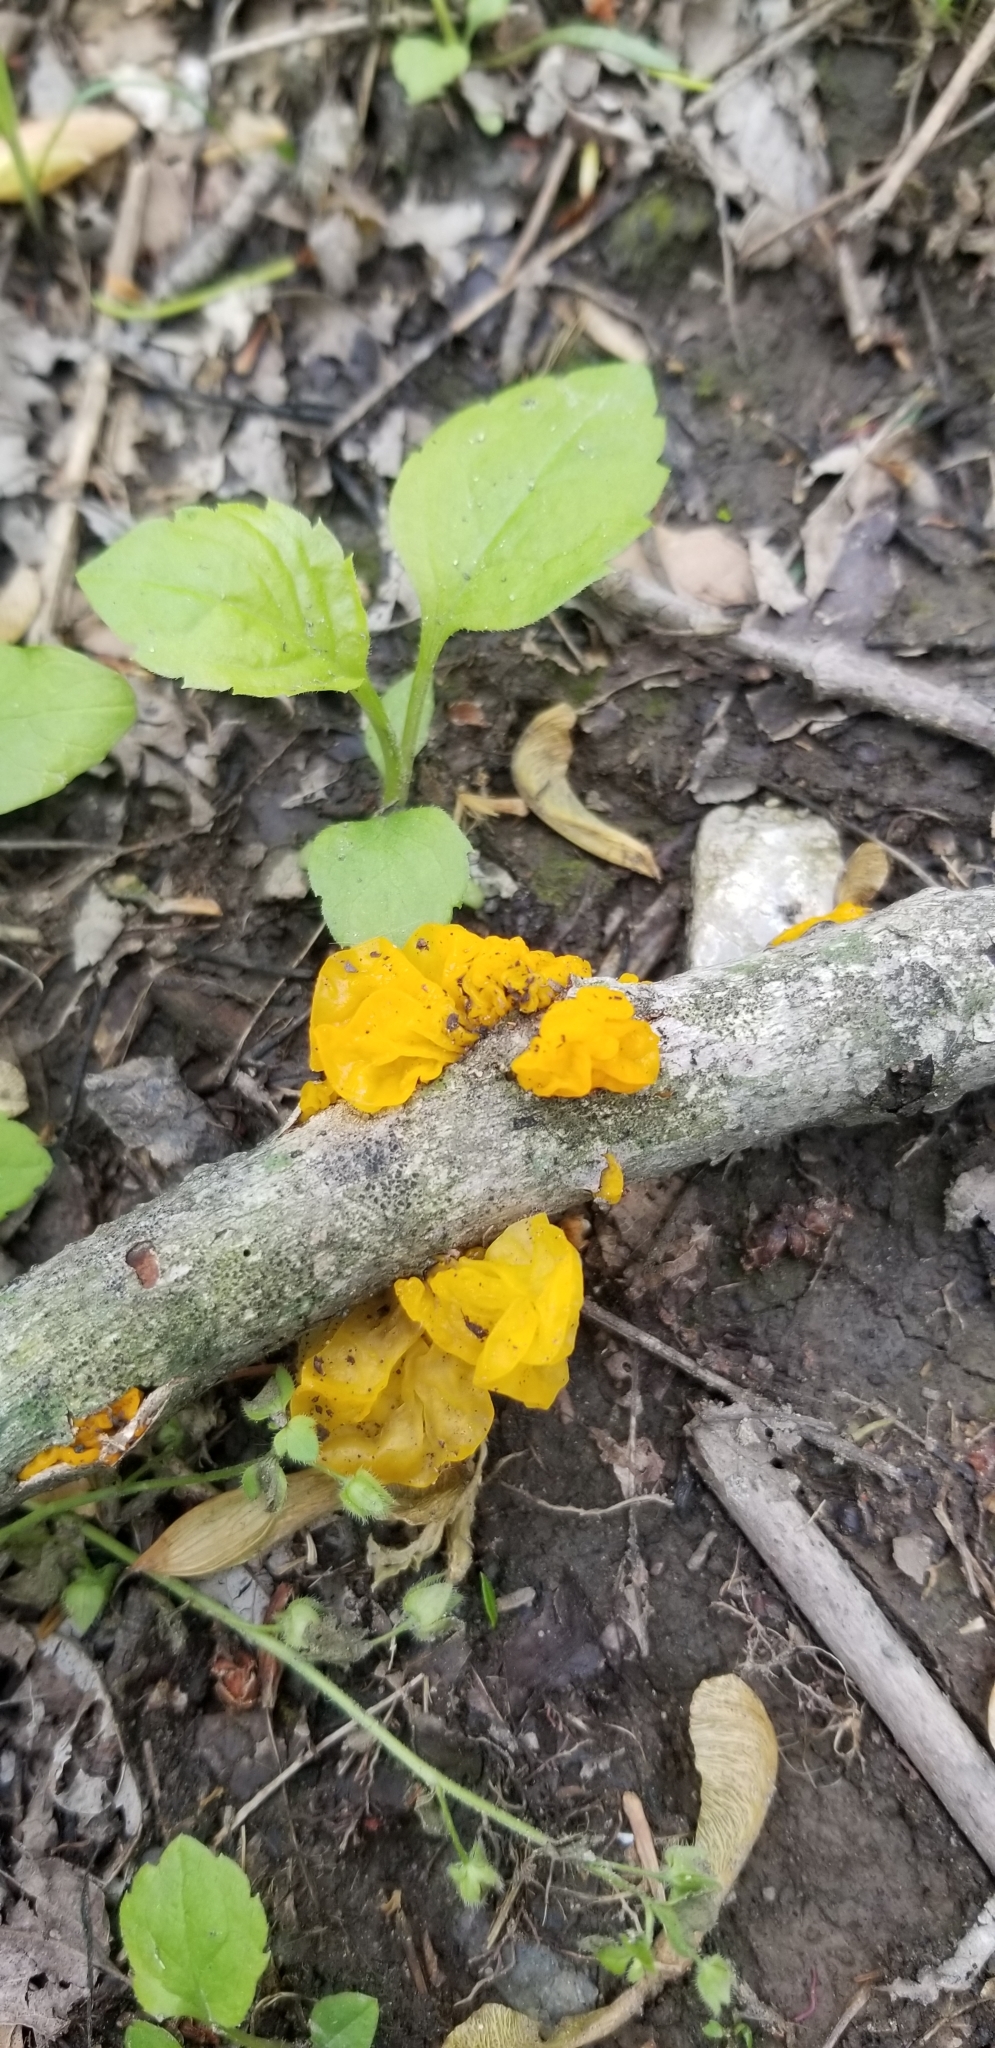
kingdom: Fungi
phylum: Basidiomycota
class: Tremellomycetes
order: Tremellales
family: Tremellaceae
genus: Tremella
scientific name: Tremella mesenterica
